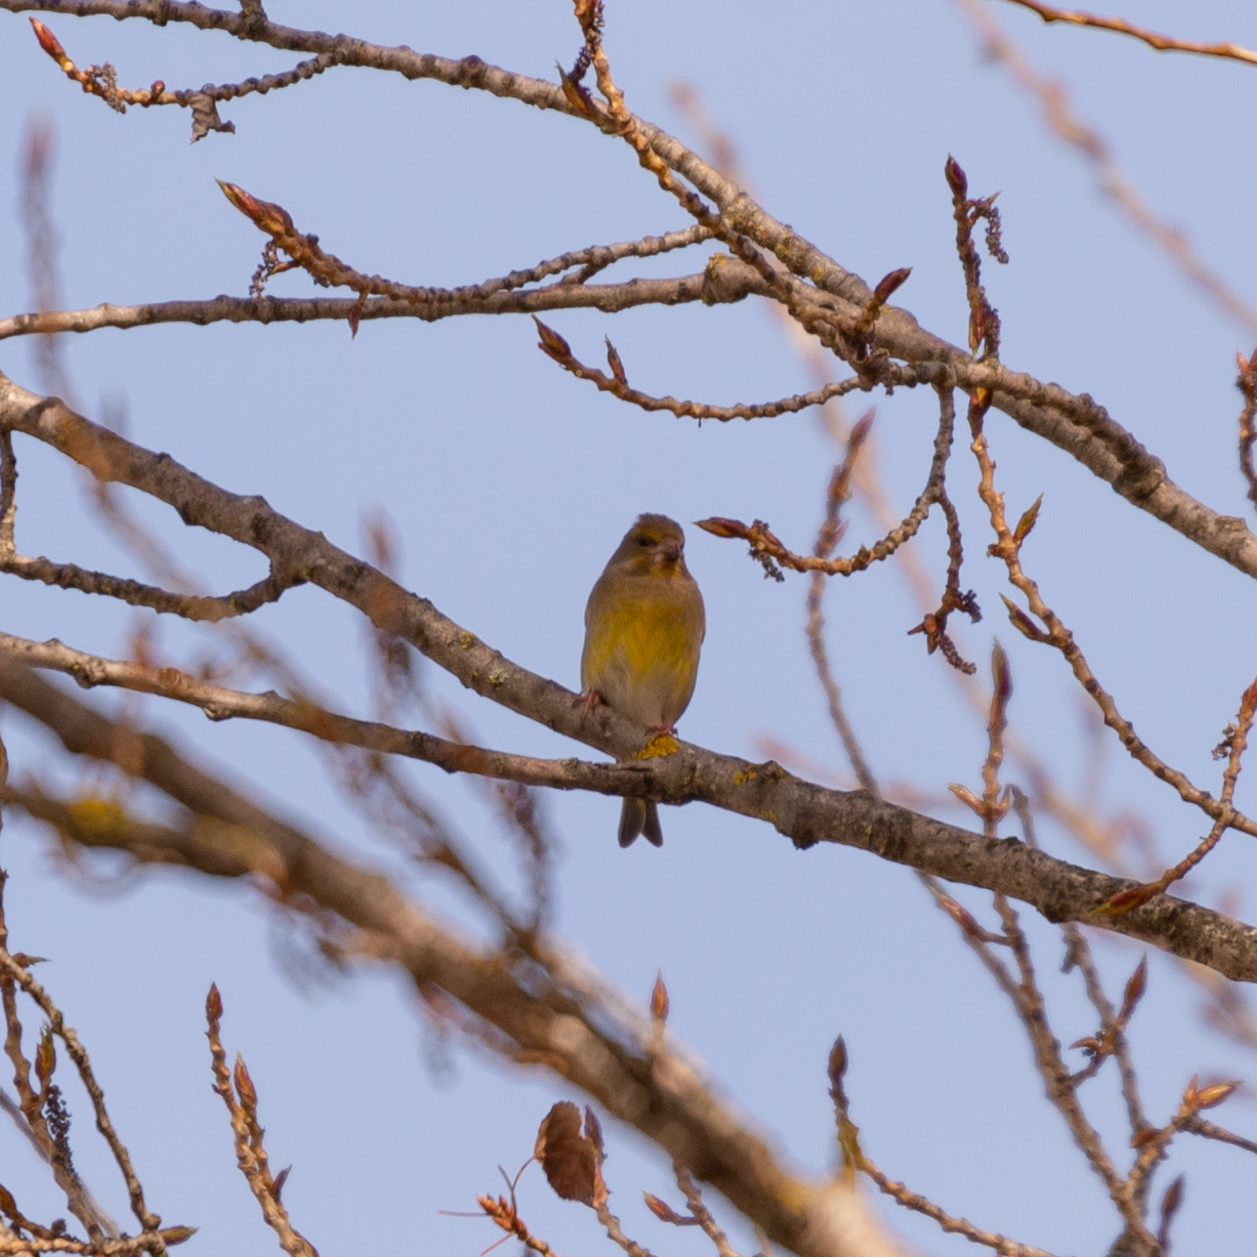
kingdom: Plantae
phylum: Tracheophyta
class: Liliopsida
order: Poales
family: Poaceae
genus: Chloris
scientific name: Chloris chloris
